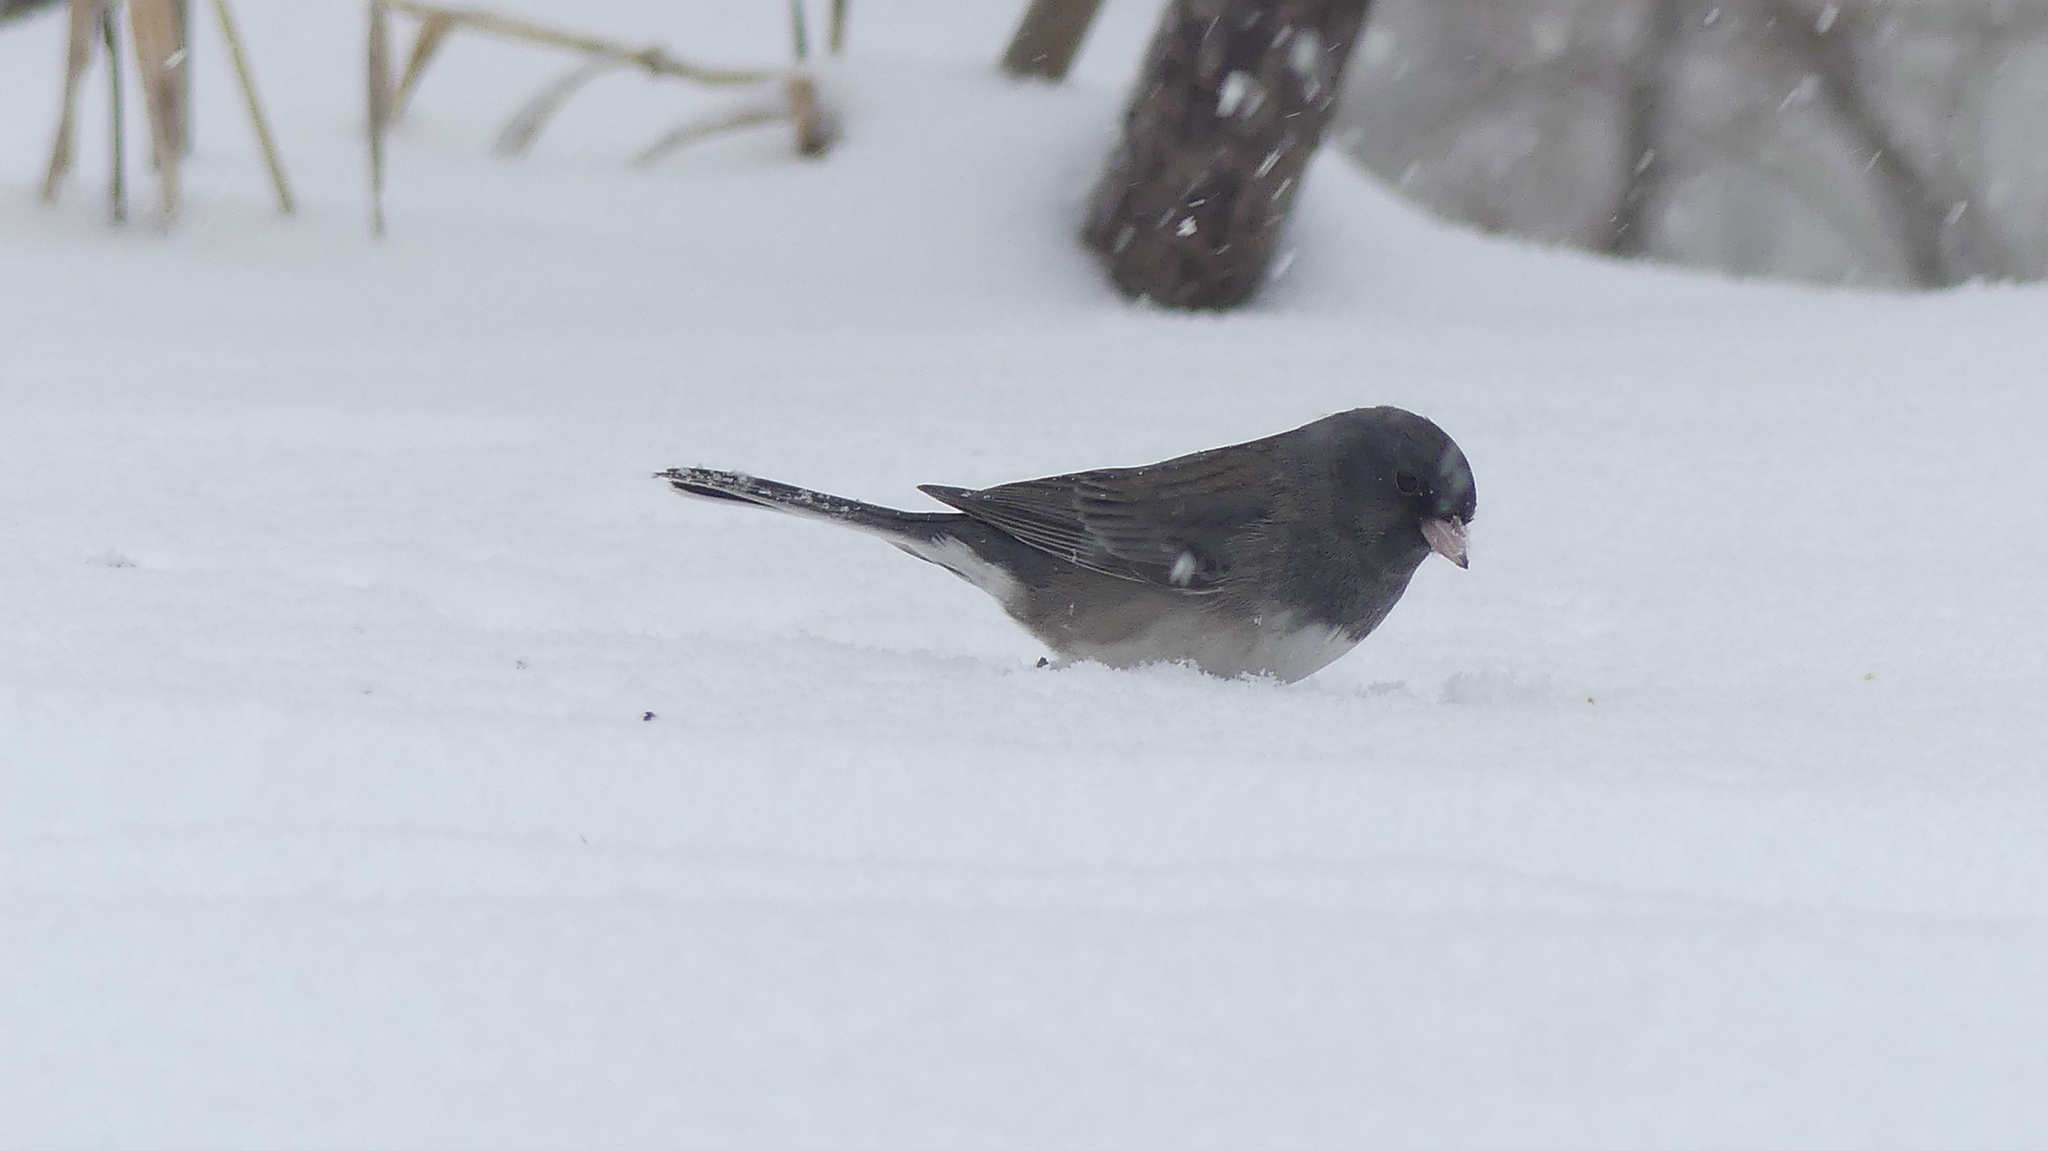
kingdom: Animalia
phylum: Chordata
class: Aves
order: Passeriformes
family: Passerellidae
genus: Junco
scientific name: Junco hyemalis
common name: Dark-eyed junco
